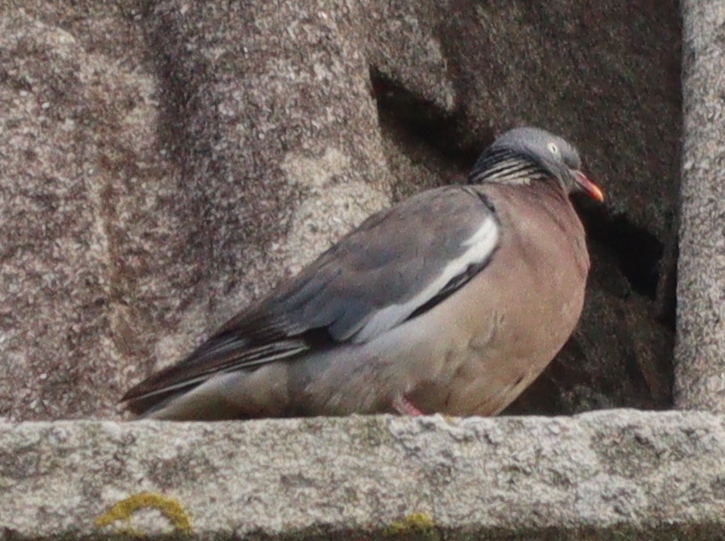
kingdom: Animalia
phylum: Chordata
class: Aves
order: Columbiformes
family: Columbidae
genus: Columba
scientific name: Columba palumbus
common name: Common wood pigeon
